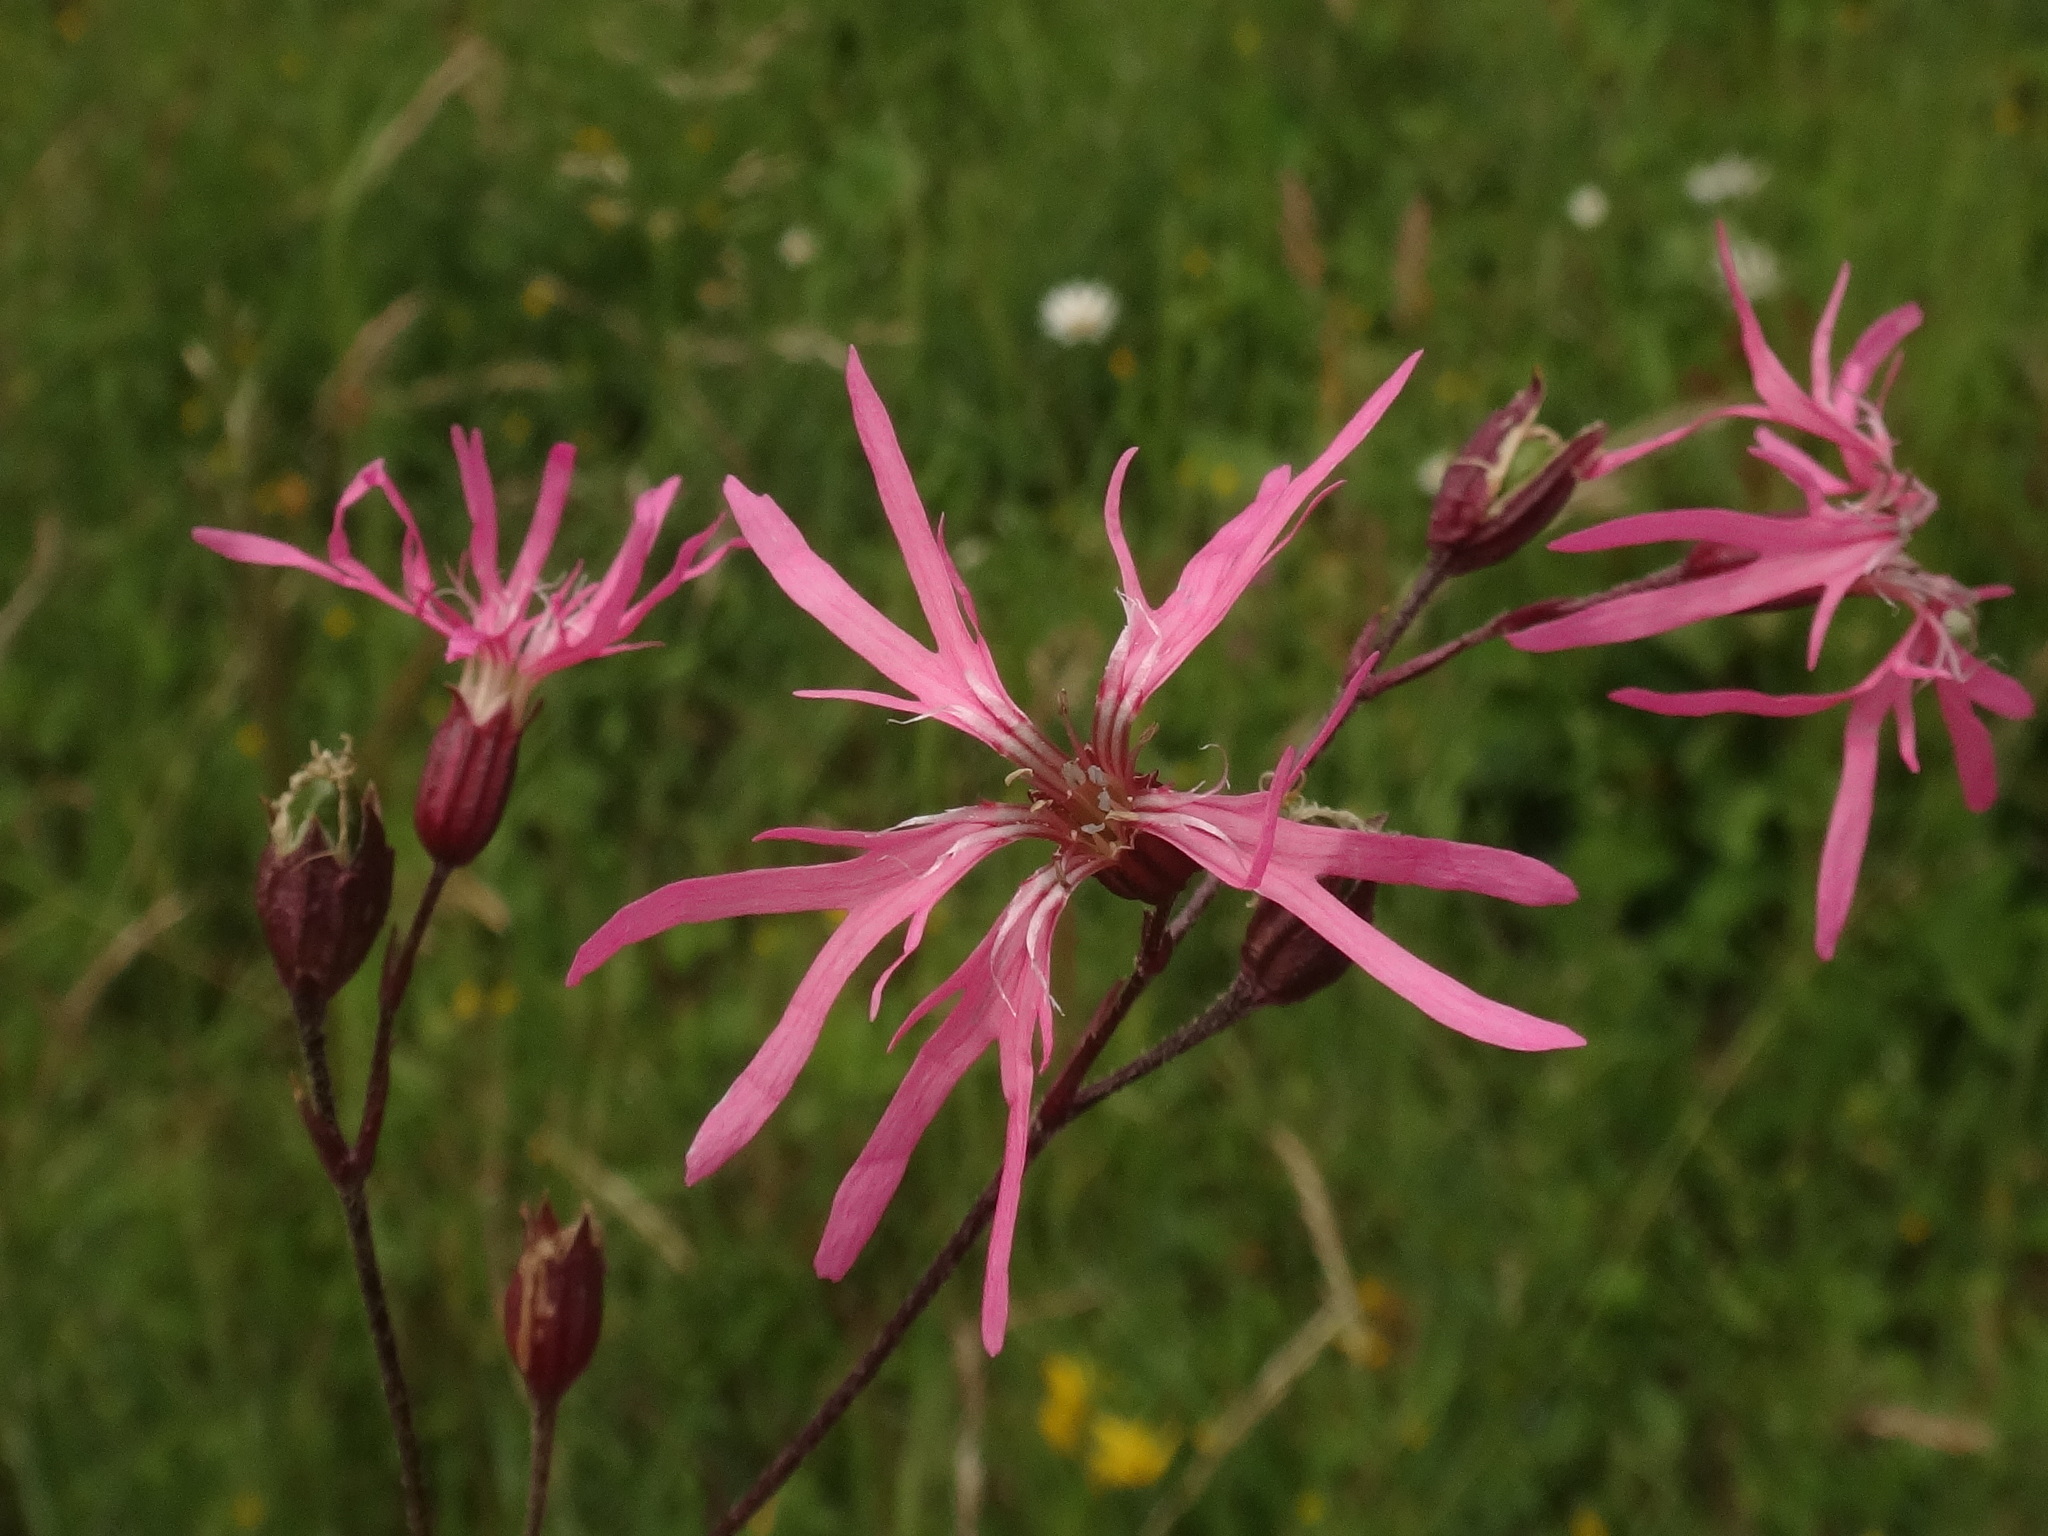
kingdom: Plantae
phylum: Tracheophyta
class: Magnoliopsida
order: Caryophyllales
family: Caryophyllaceae
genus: Silene
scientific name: Silene flos-cuculi
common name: Ragged-robin
